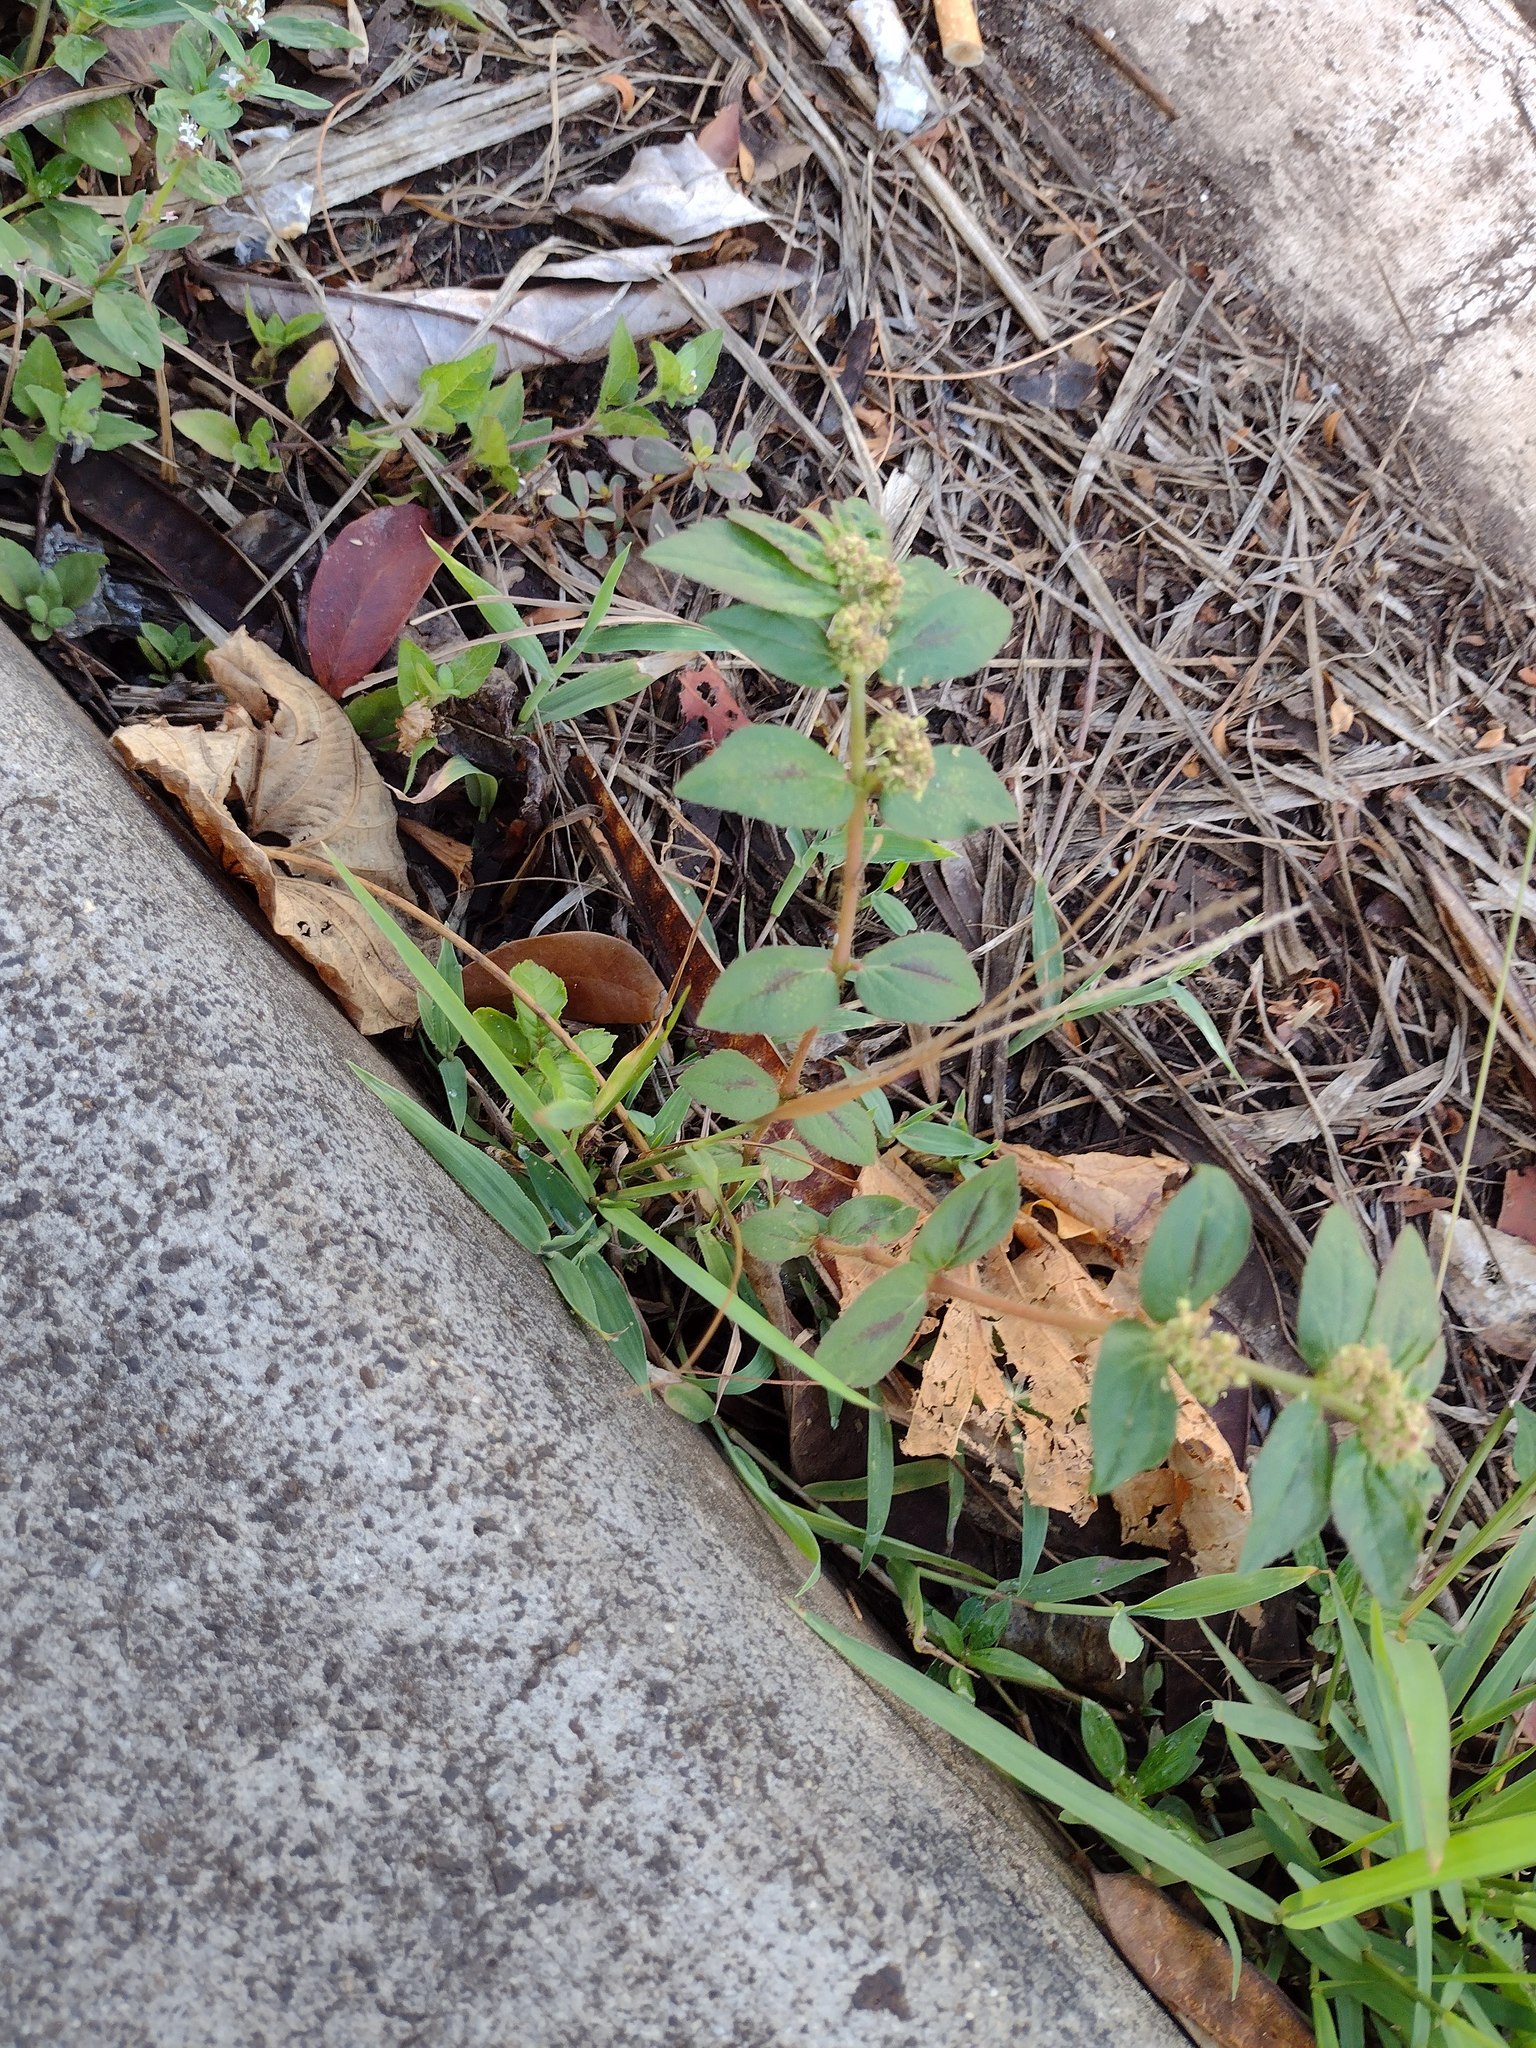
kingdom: Plantae
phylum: Tracheophyta
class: Magnoliopsida
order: Malpighiales
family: Euphorbiaceae
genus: Euphorbia
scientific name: Euphorbia hirta
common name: Pillpod sandmat
